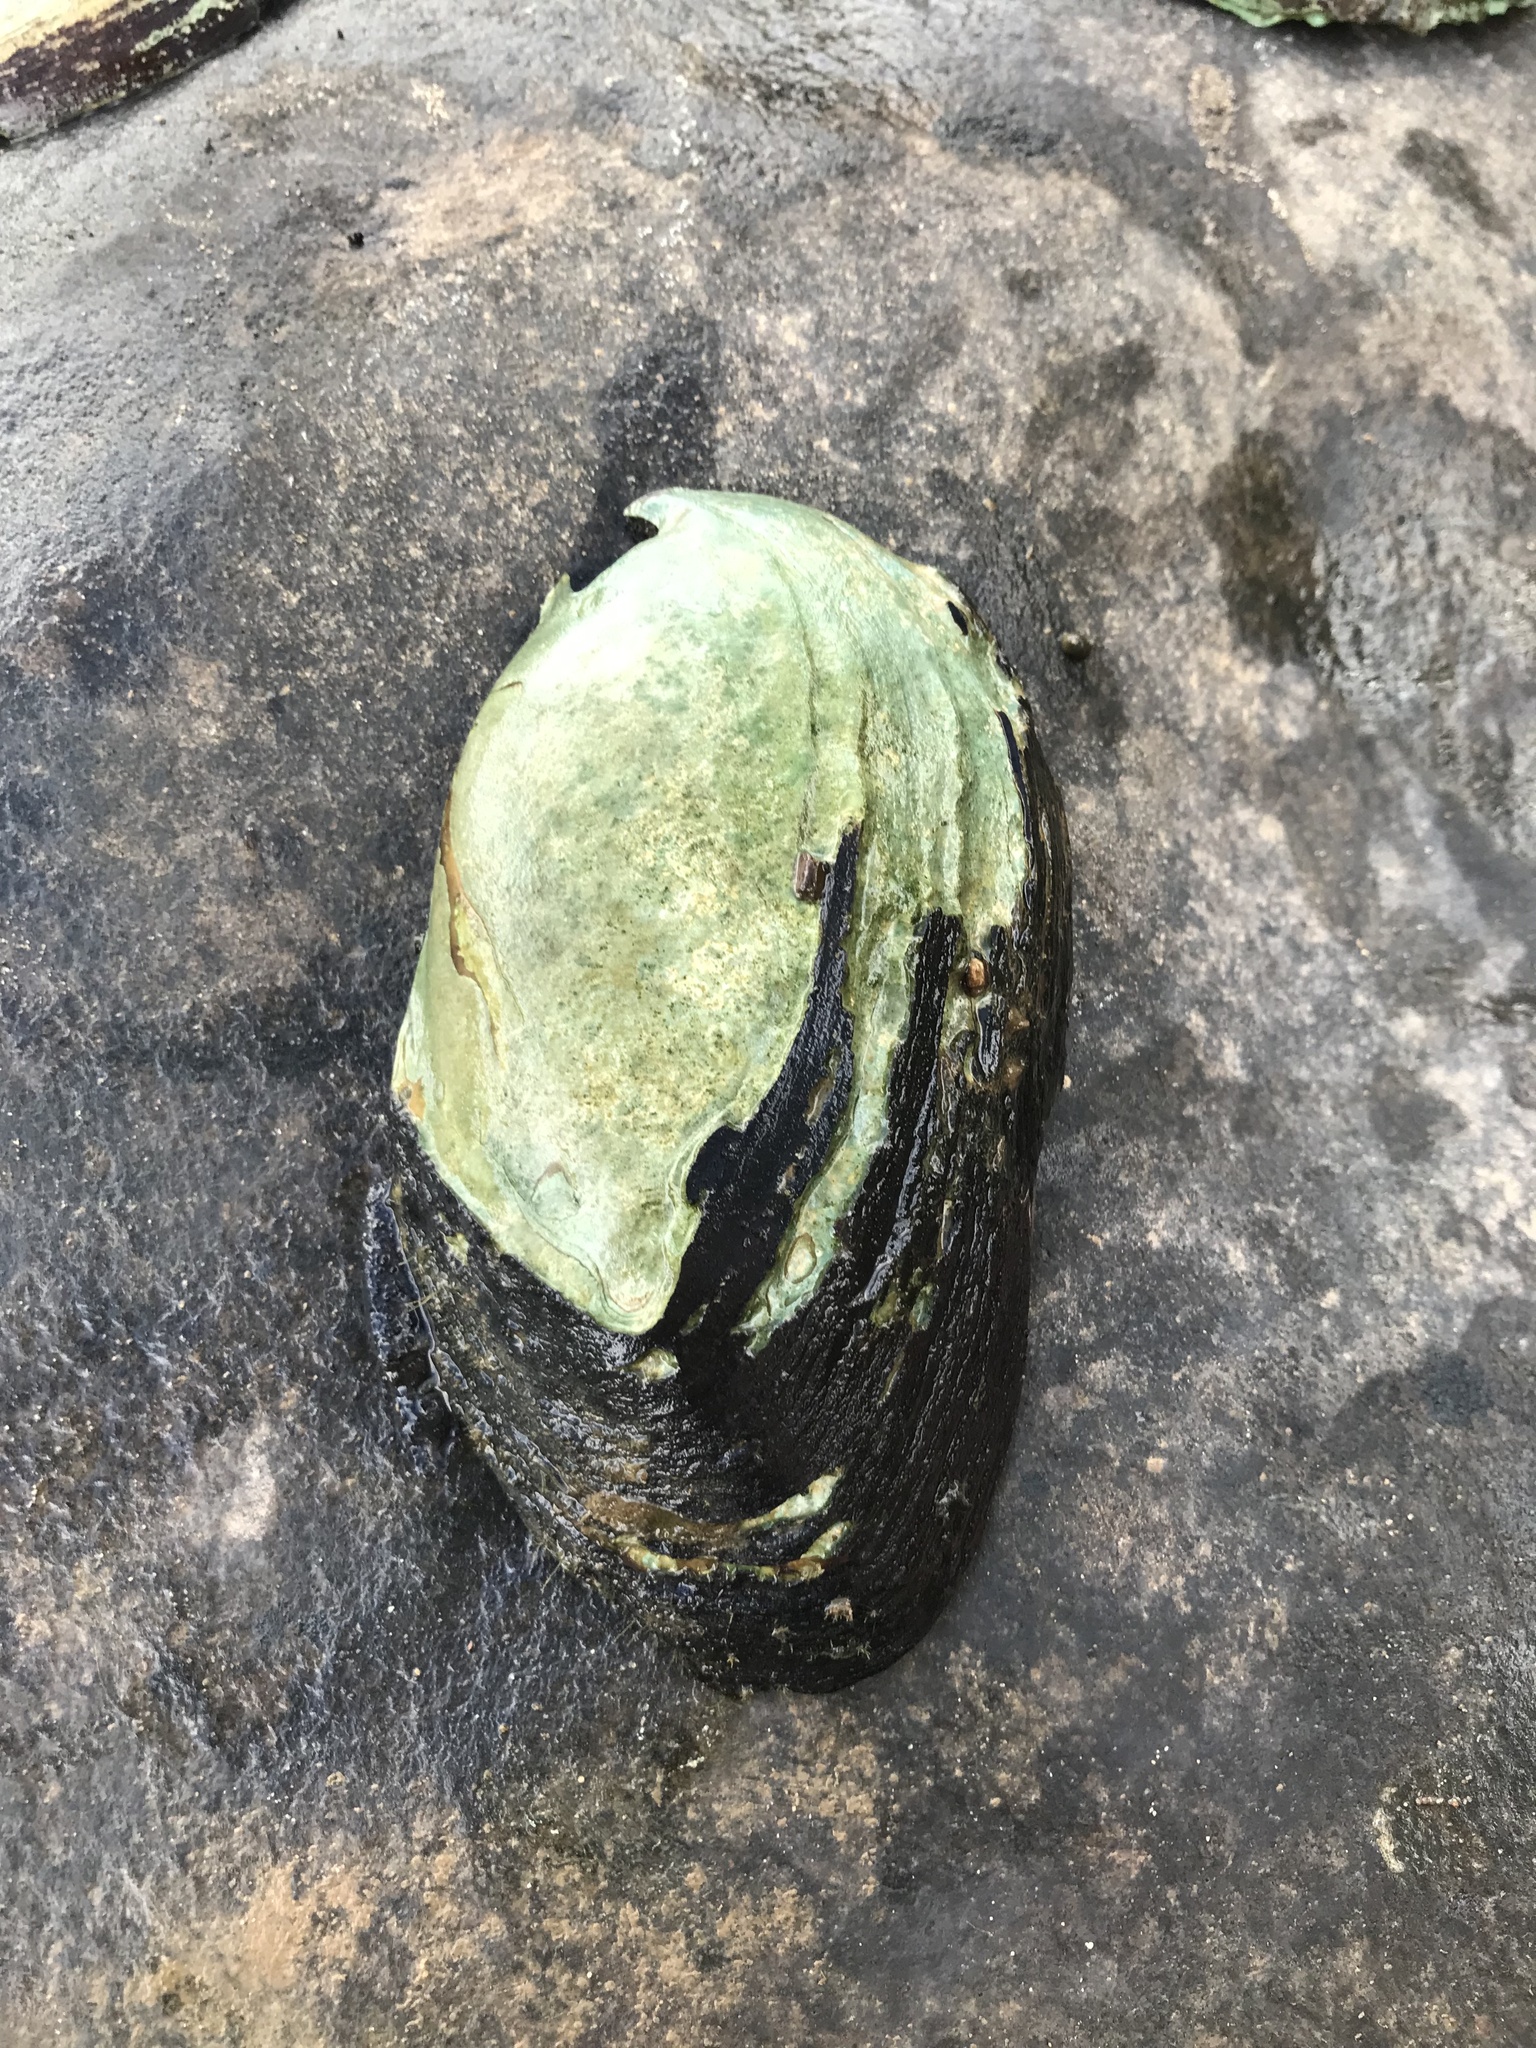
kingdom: Animalia
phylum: Mollusca
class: Bivalvia
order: Unionida
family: Unionidae
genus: Elliptio
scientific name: Elliptio crassidens
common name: Blue ham
